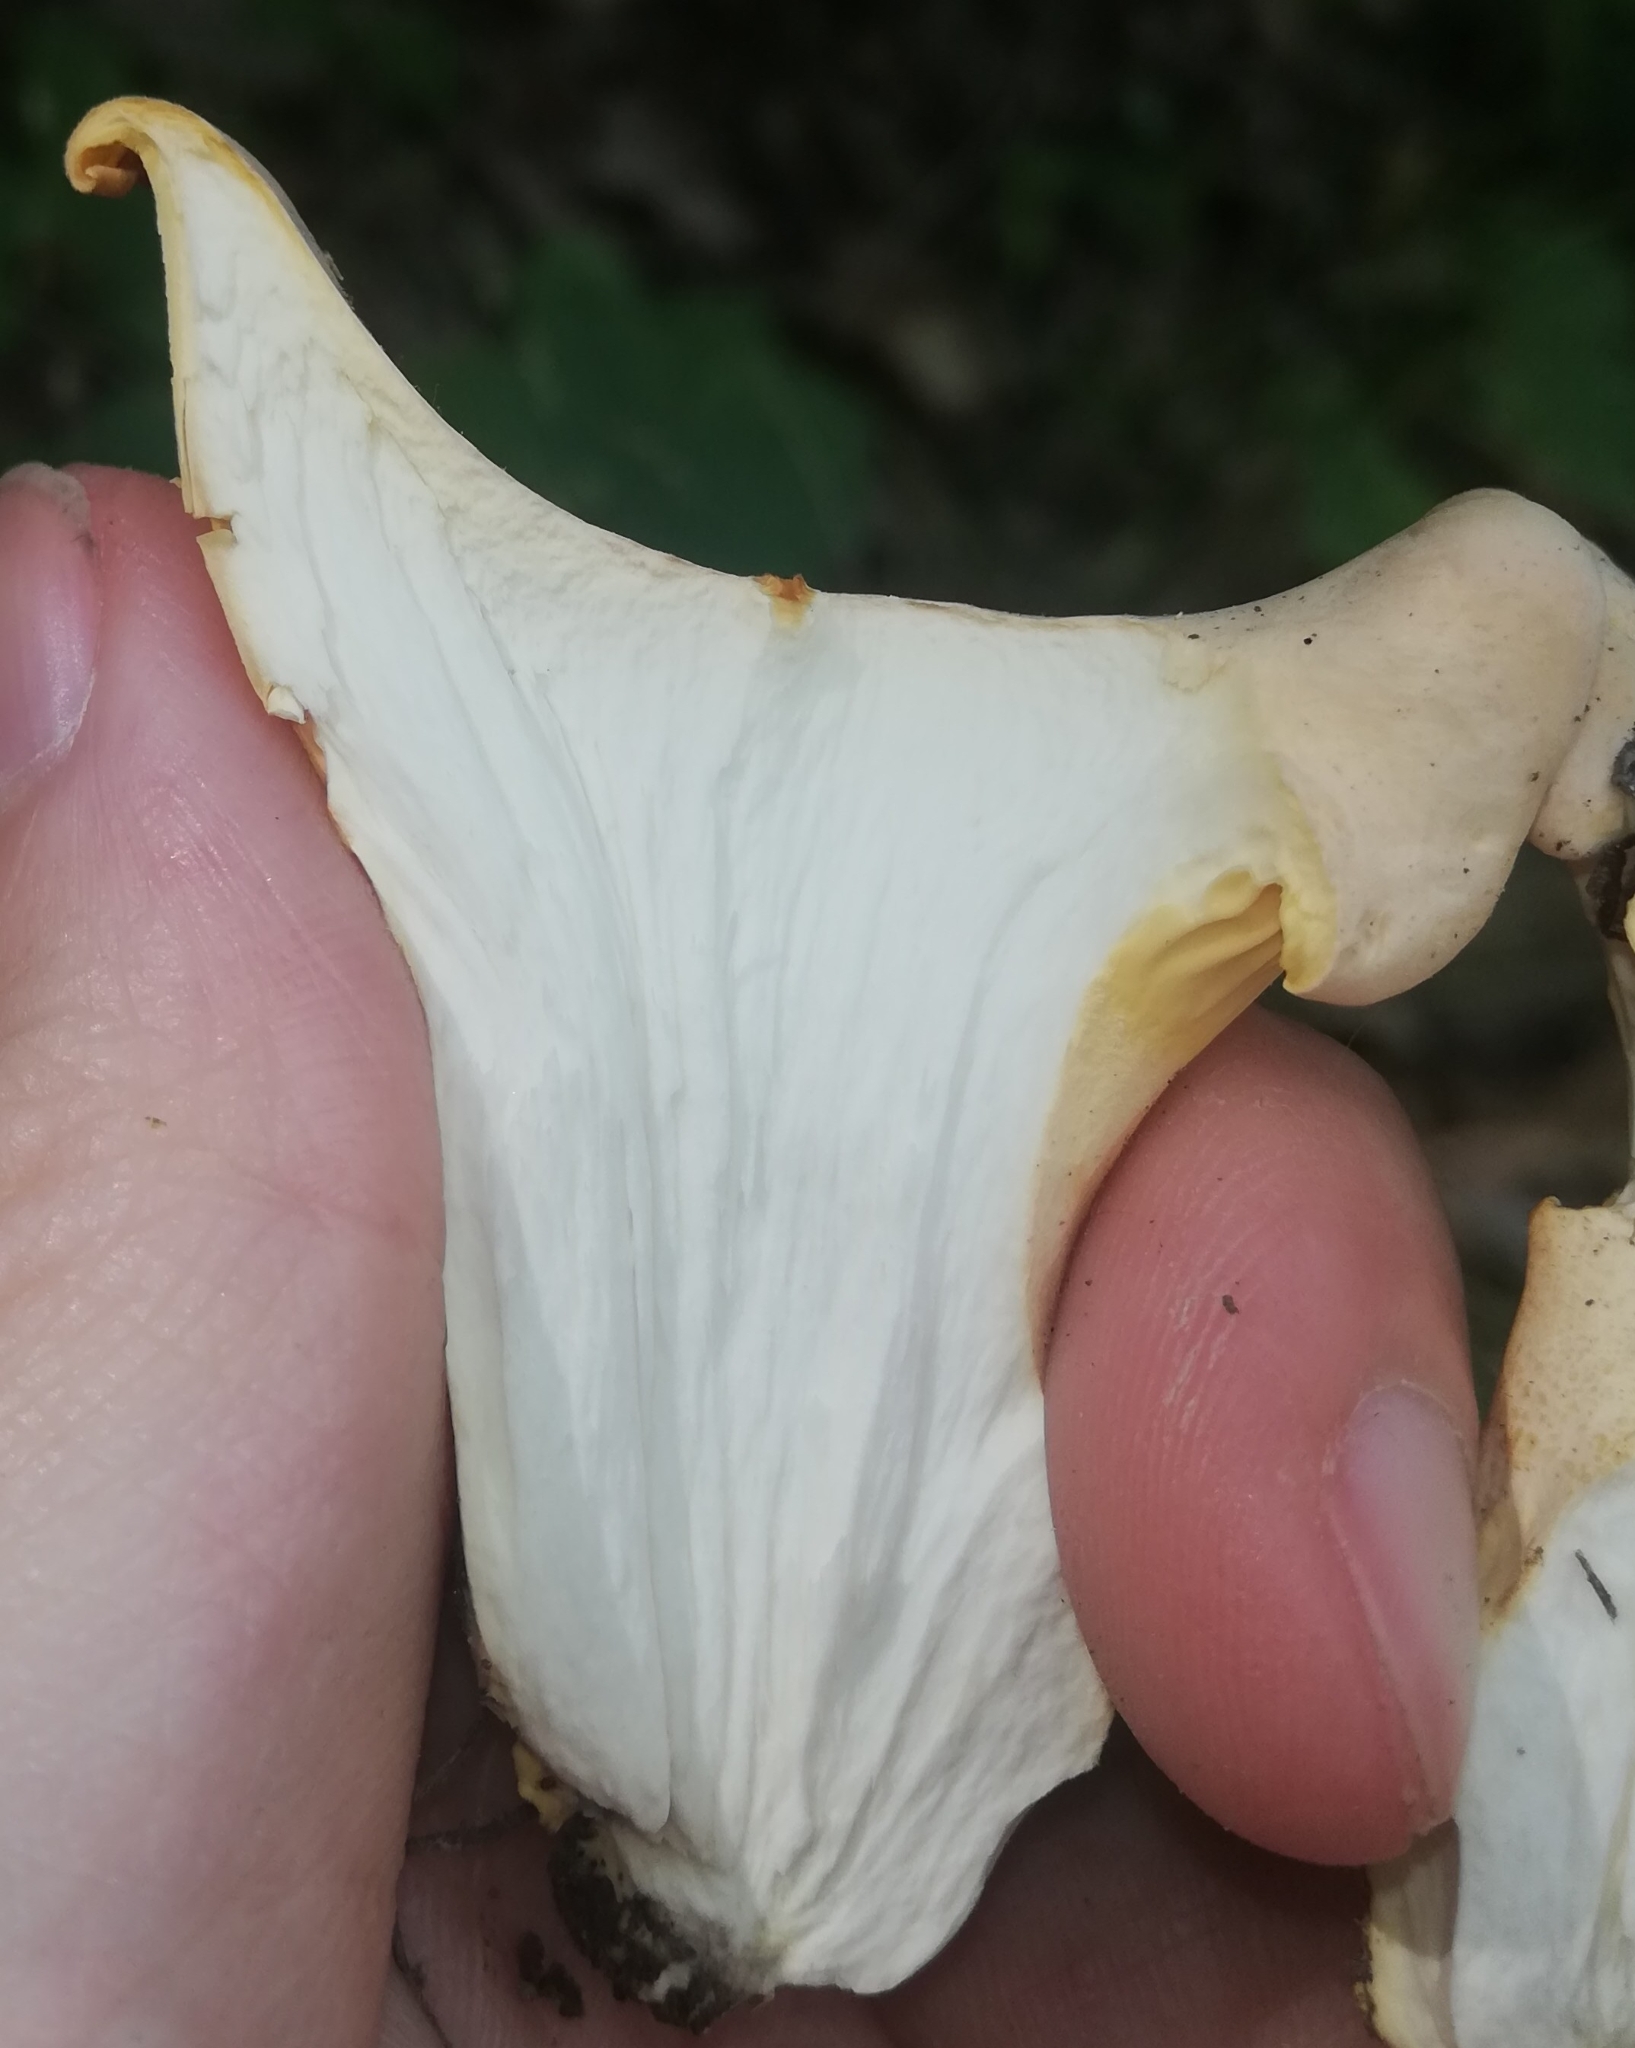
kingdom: Fungi
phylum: Basidiomycota
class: Agaricomycetes
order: Cantharellales
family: Hydnaceae
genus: Cantharellus
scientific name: Cantharellus pallens
